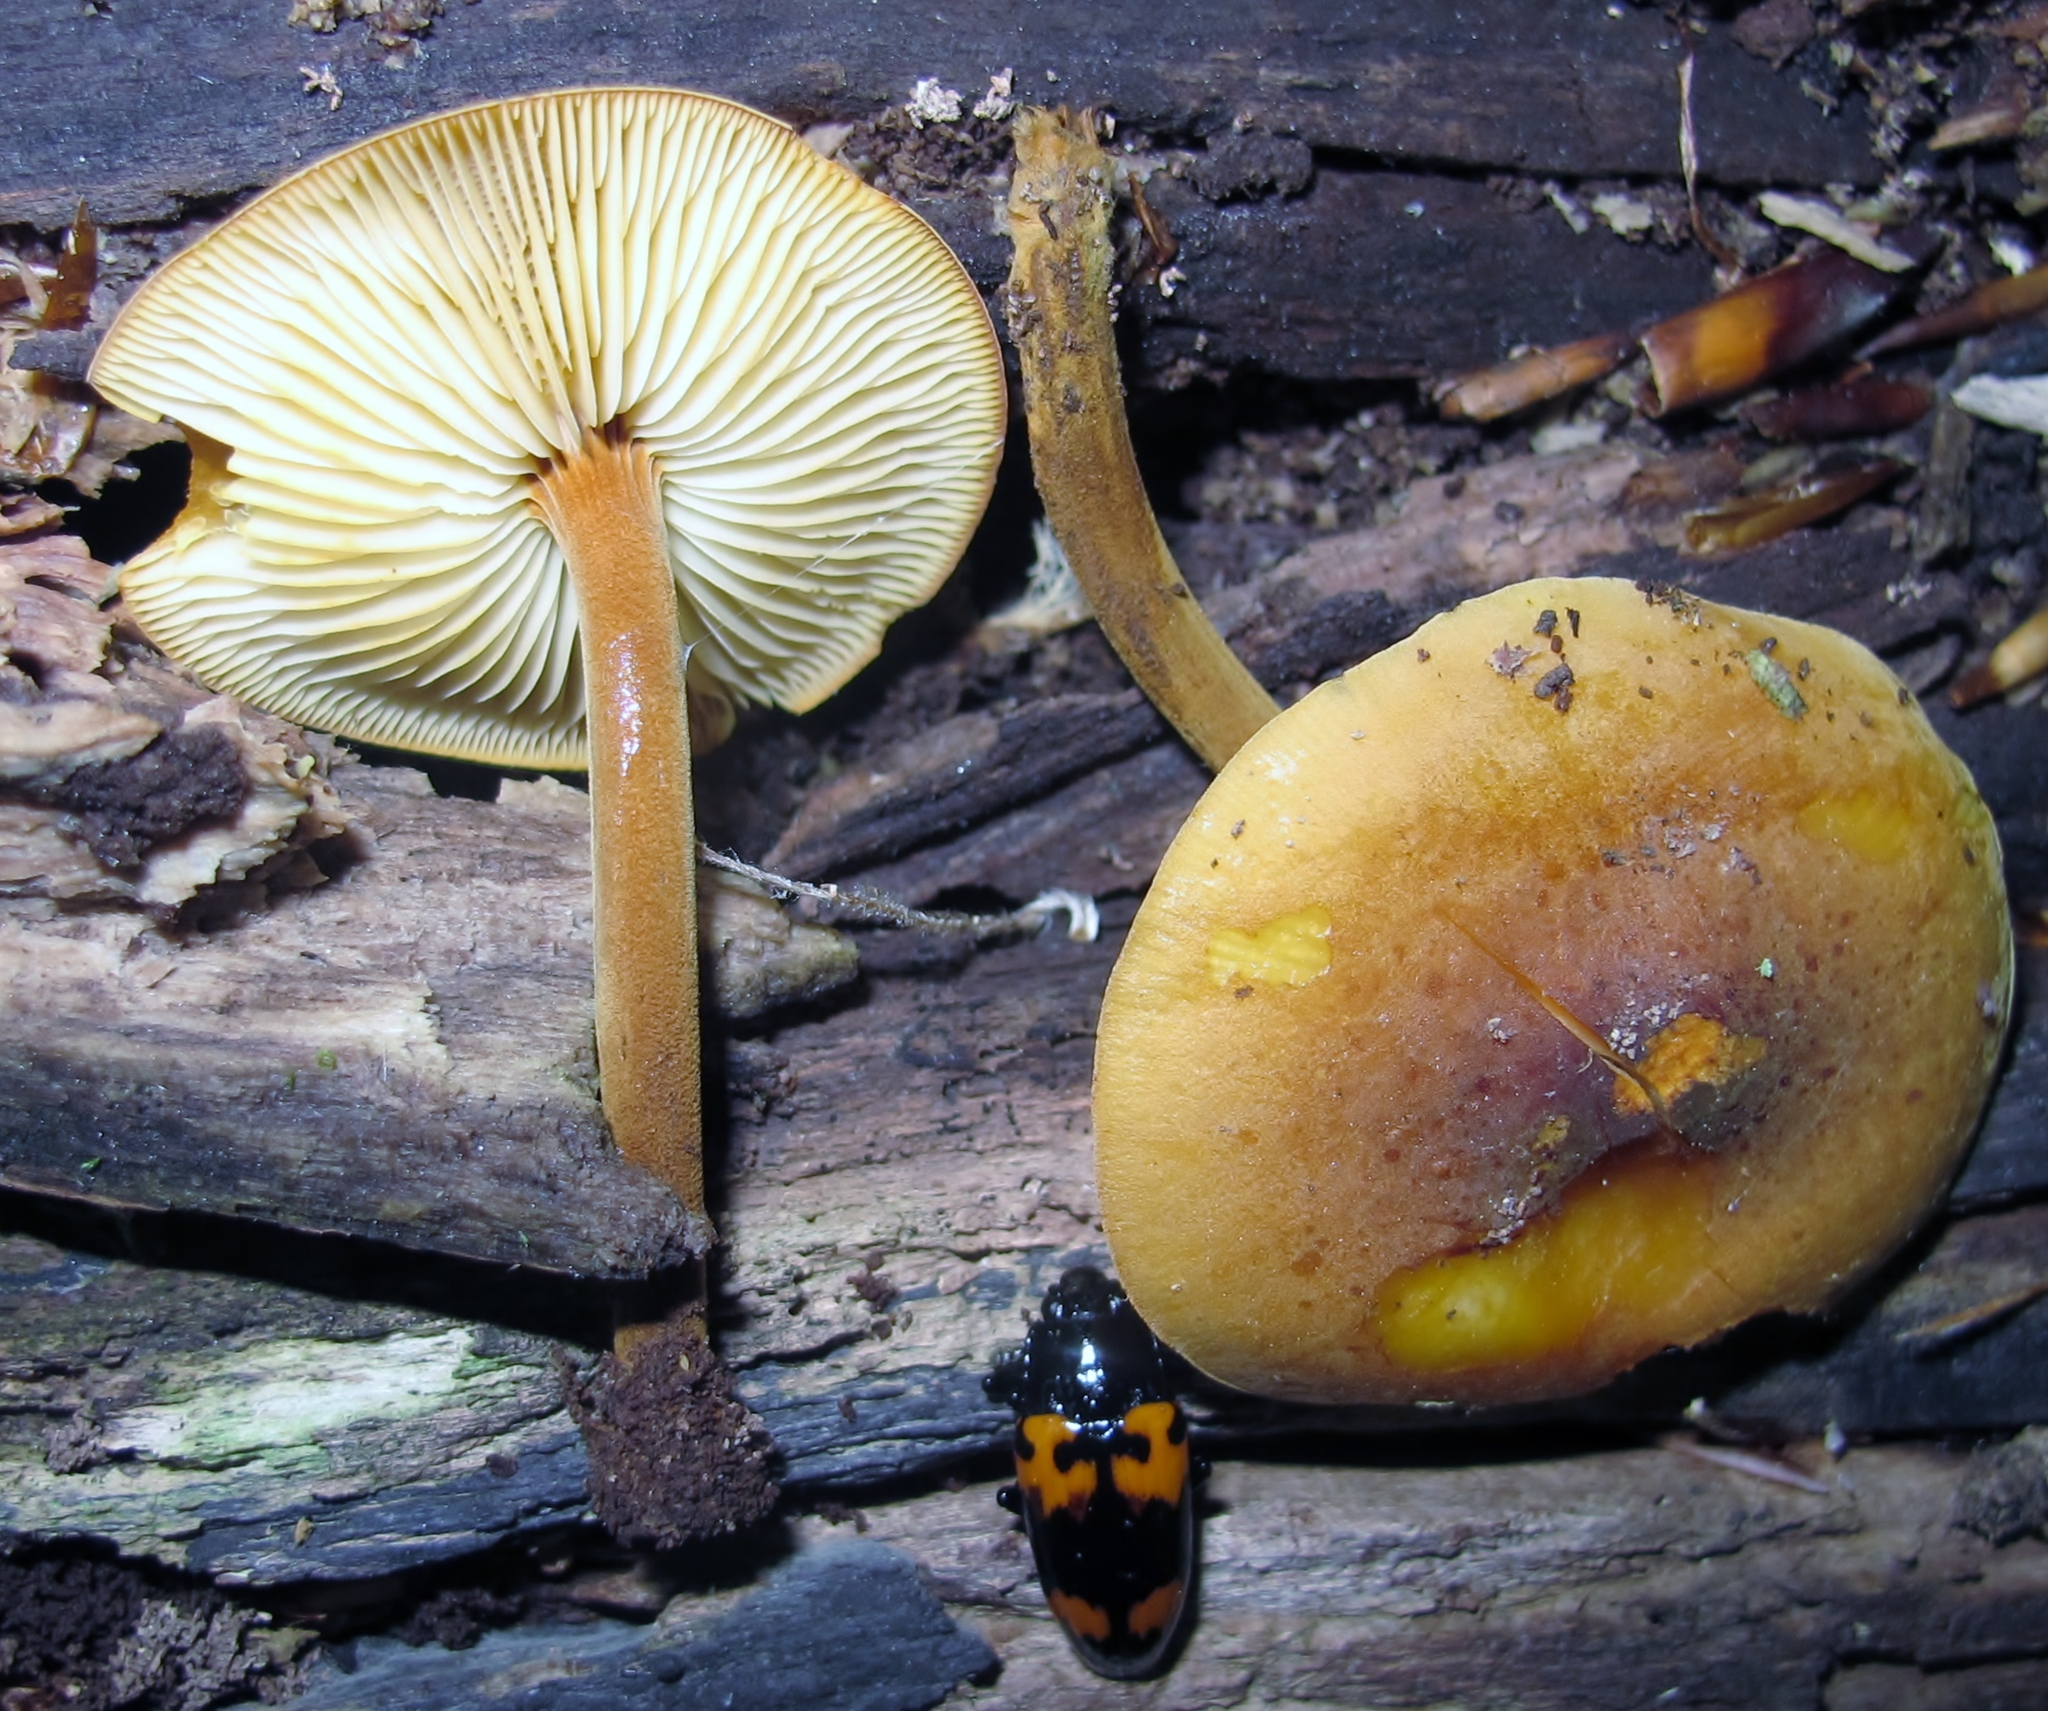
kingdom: Fungi
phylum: Basidiomycota
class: Agaricomycetes
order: Agaricales
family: Mycenaceae
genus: Xeromphalina
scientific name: Xeromphalina tenuipes
